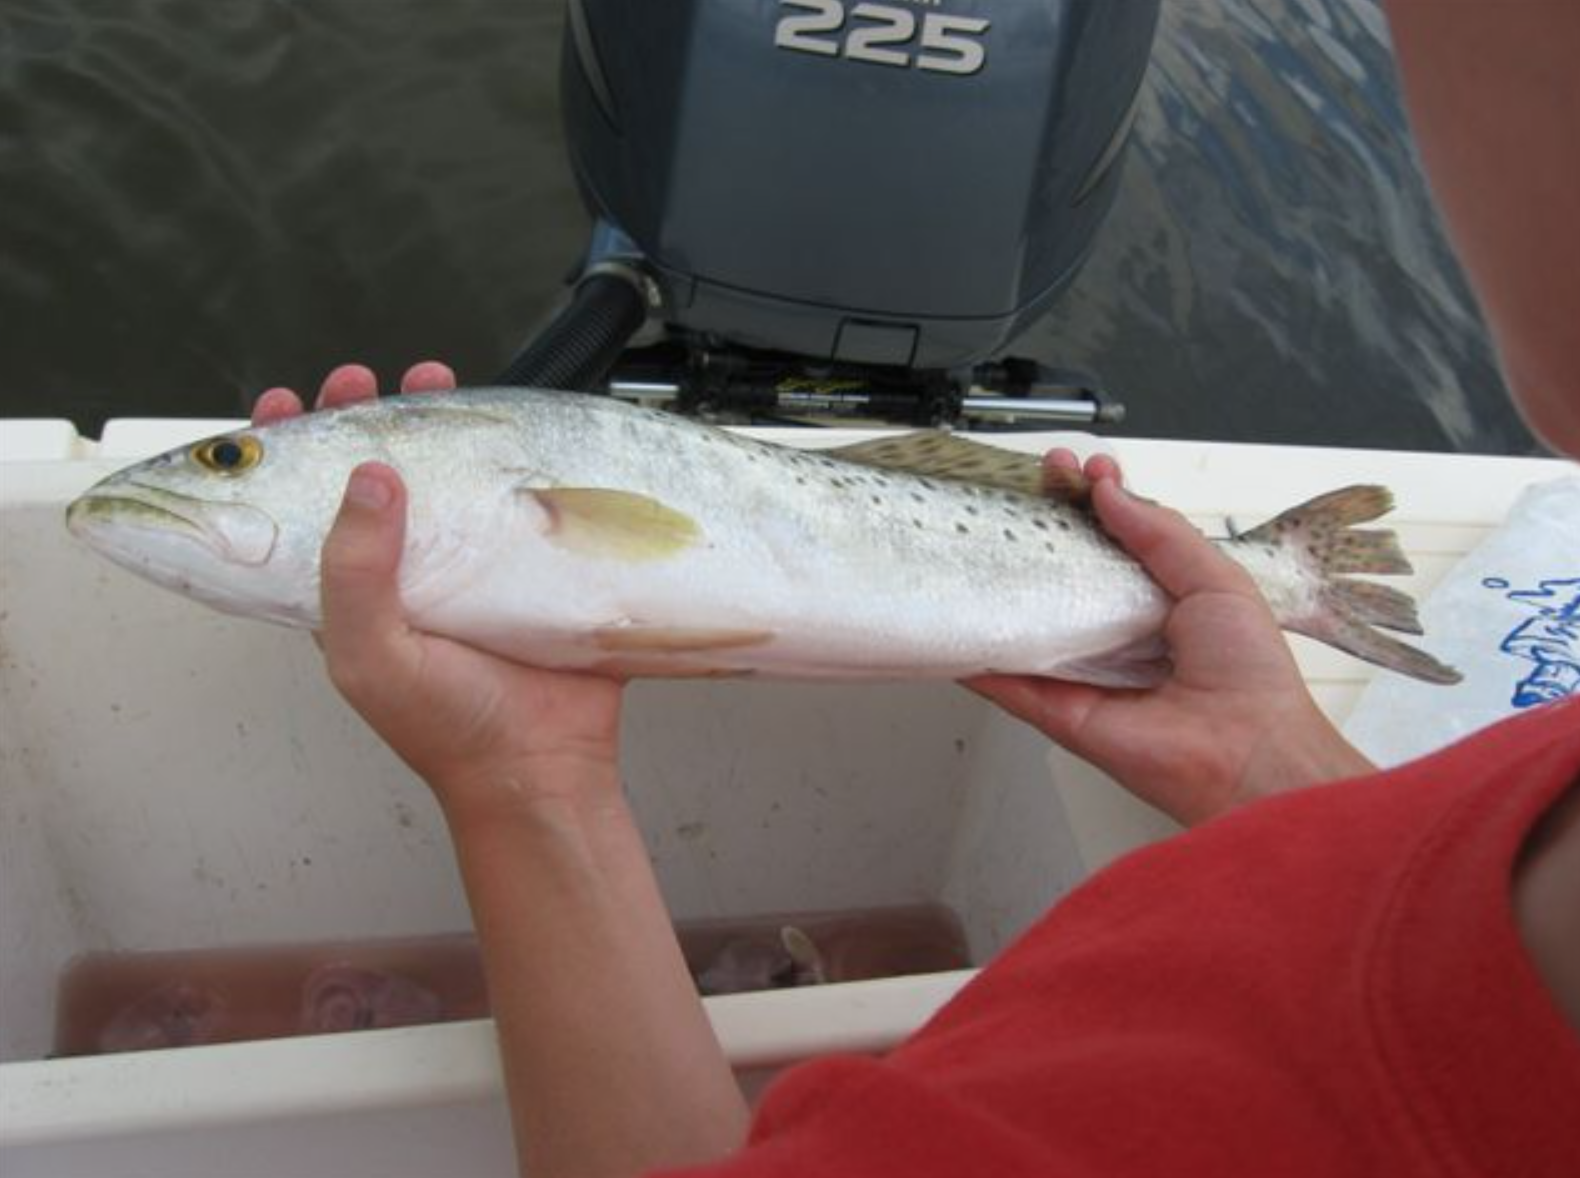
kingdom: Animalia
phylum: Chordata
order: Perciformes
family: Sciaenidae
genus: Cynoscion
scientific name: Cynoscion nebulosus
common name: Spotted seatrout
